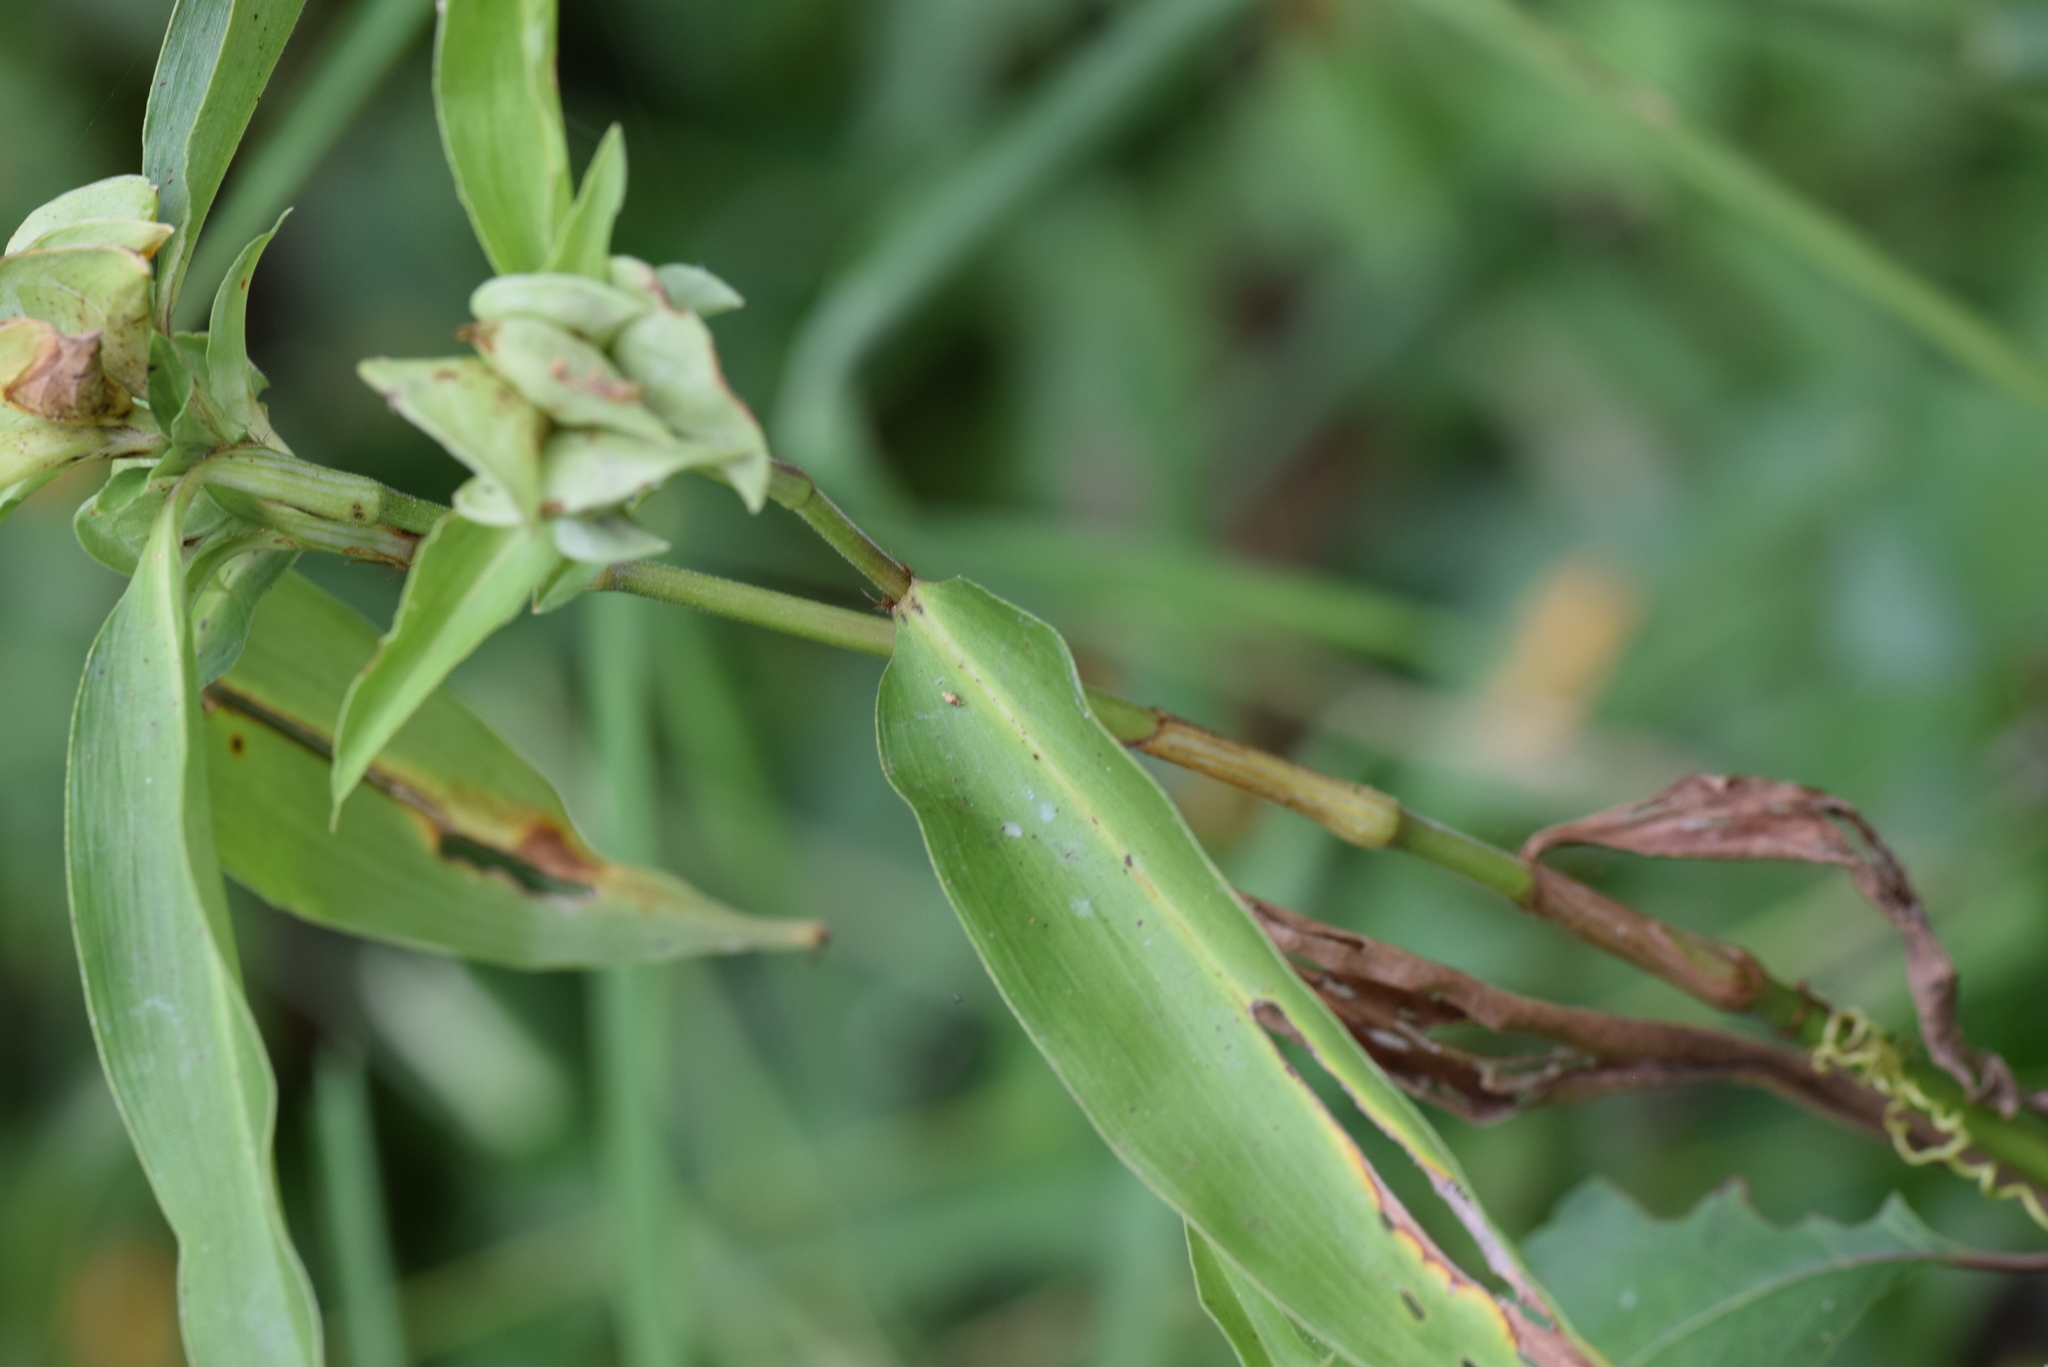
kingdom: Plantae
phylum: Tracheophyta
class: Liliopsida
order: Commelinales
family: Commelinaceae
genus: Commelina
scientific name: Commelina virginica
